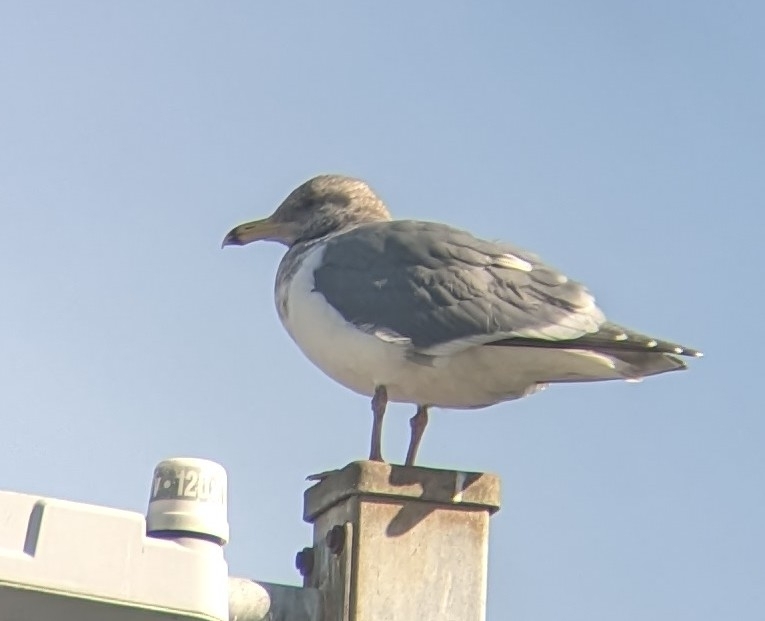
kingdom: Animalia
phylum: Chordata
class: Aves
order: Charadriiformes
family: Laridae
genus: Larus
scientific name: Larus
